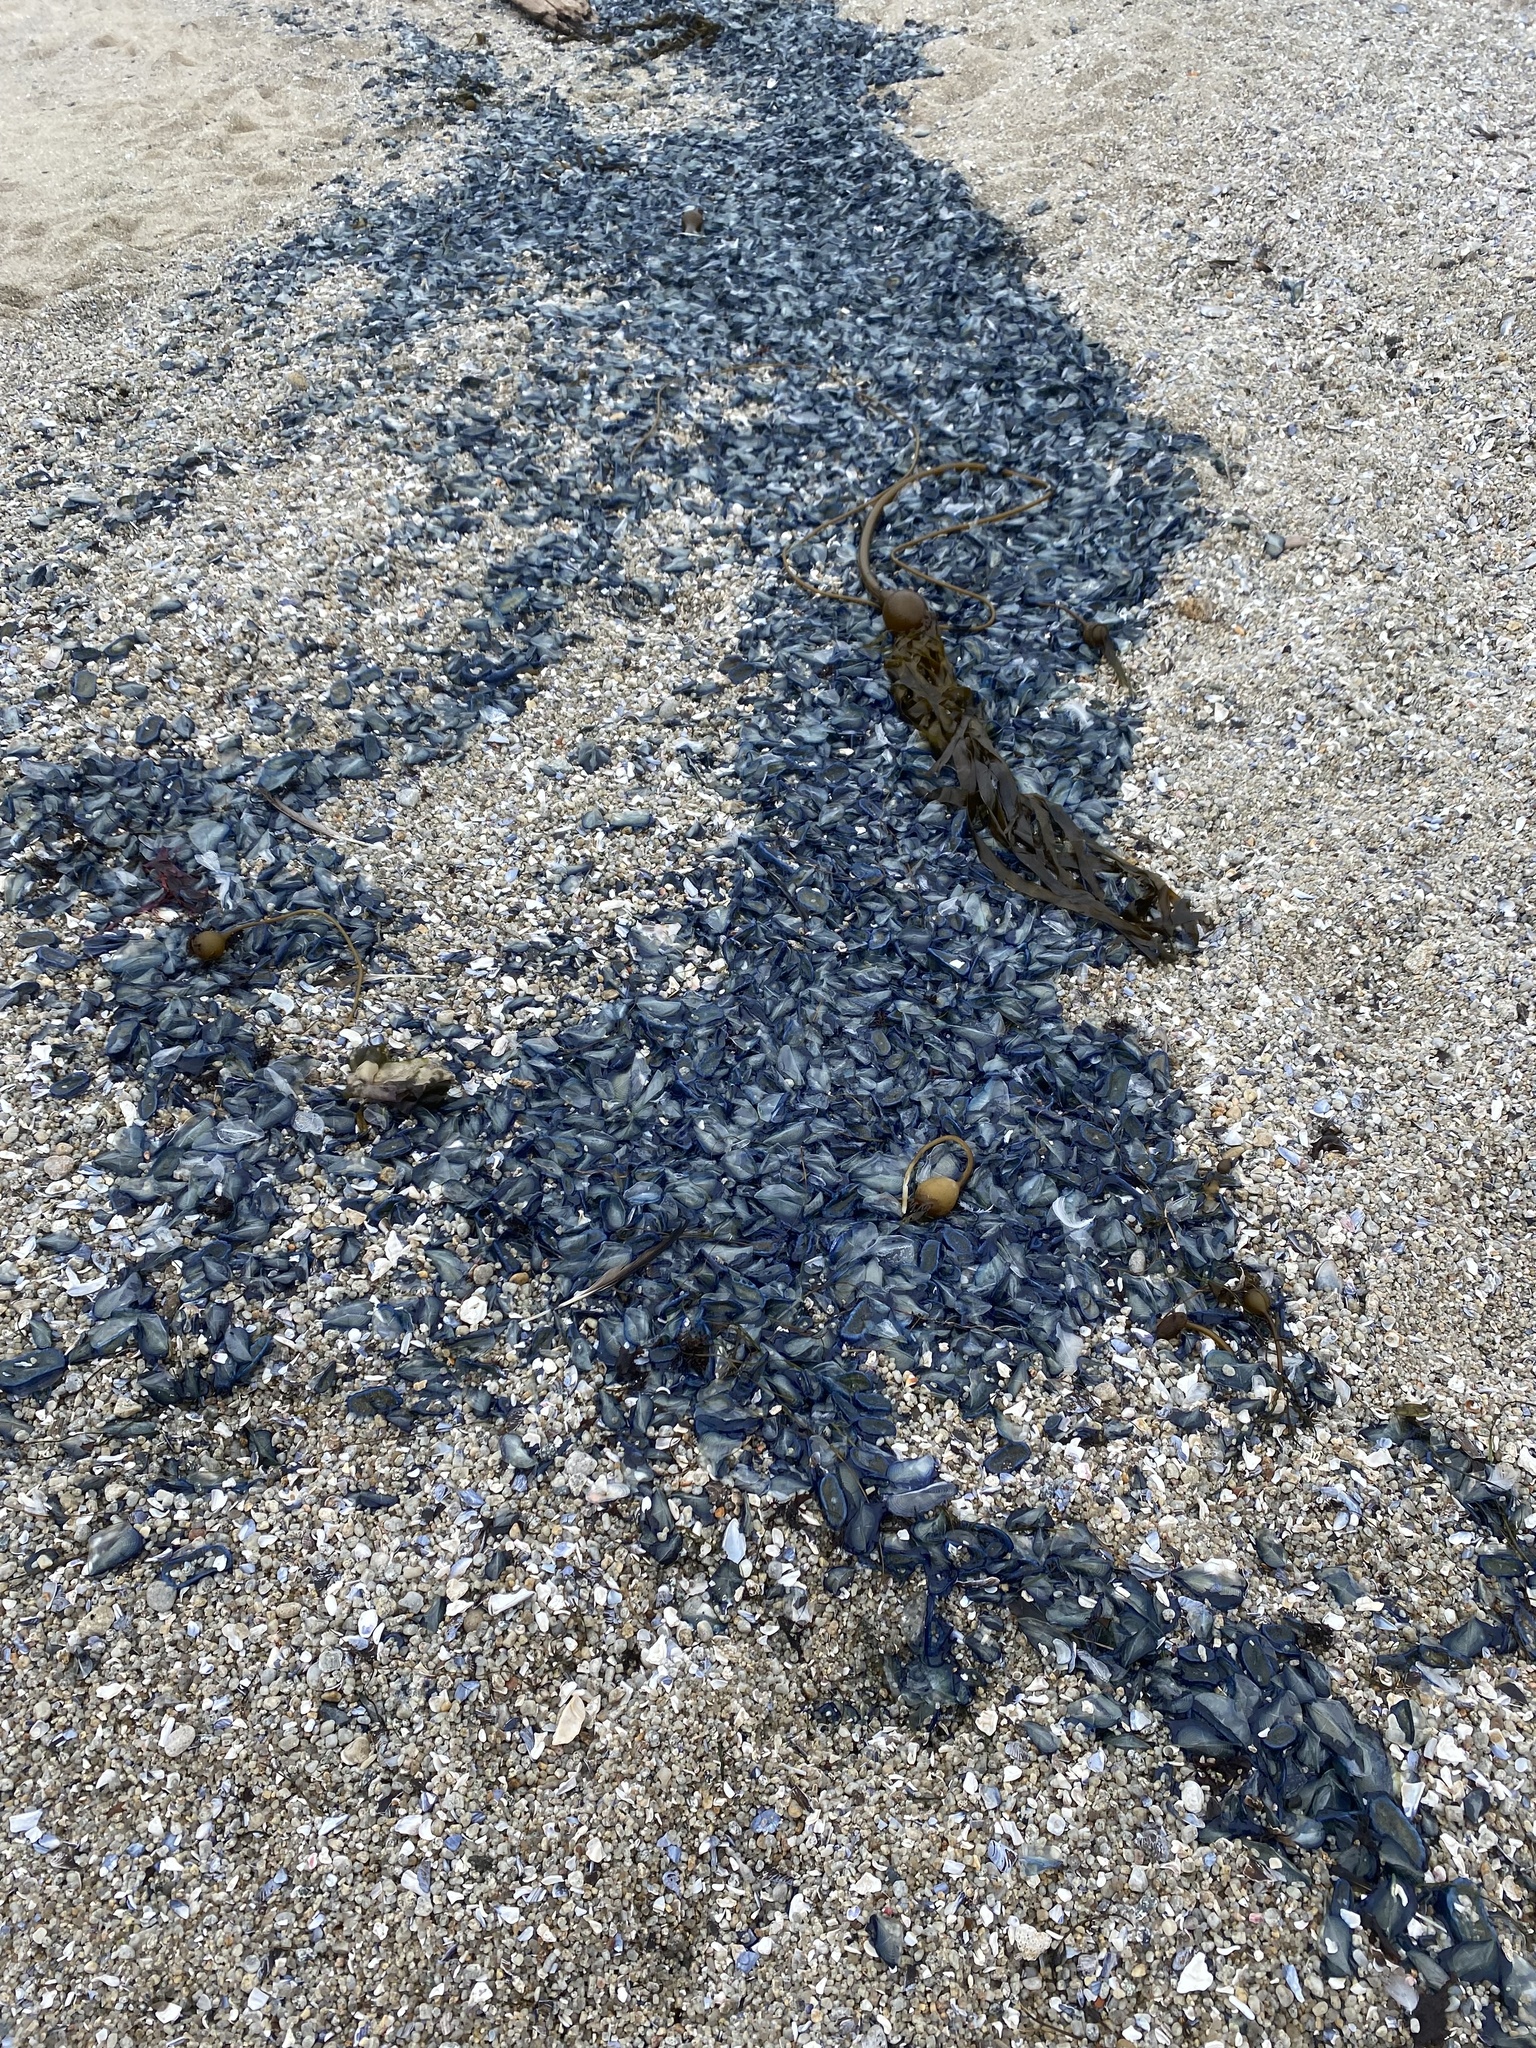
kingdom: Animalia
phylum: Cnidaria
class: Hydrozoa
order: Anthoathecata
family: Porpitidae
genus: Velella
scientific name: Velella velella
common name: By-the-wind-sailor
